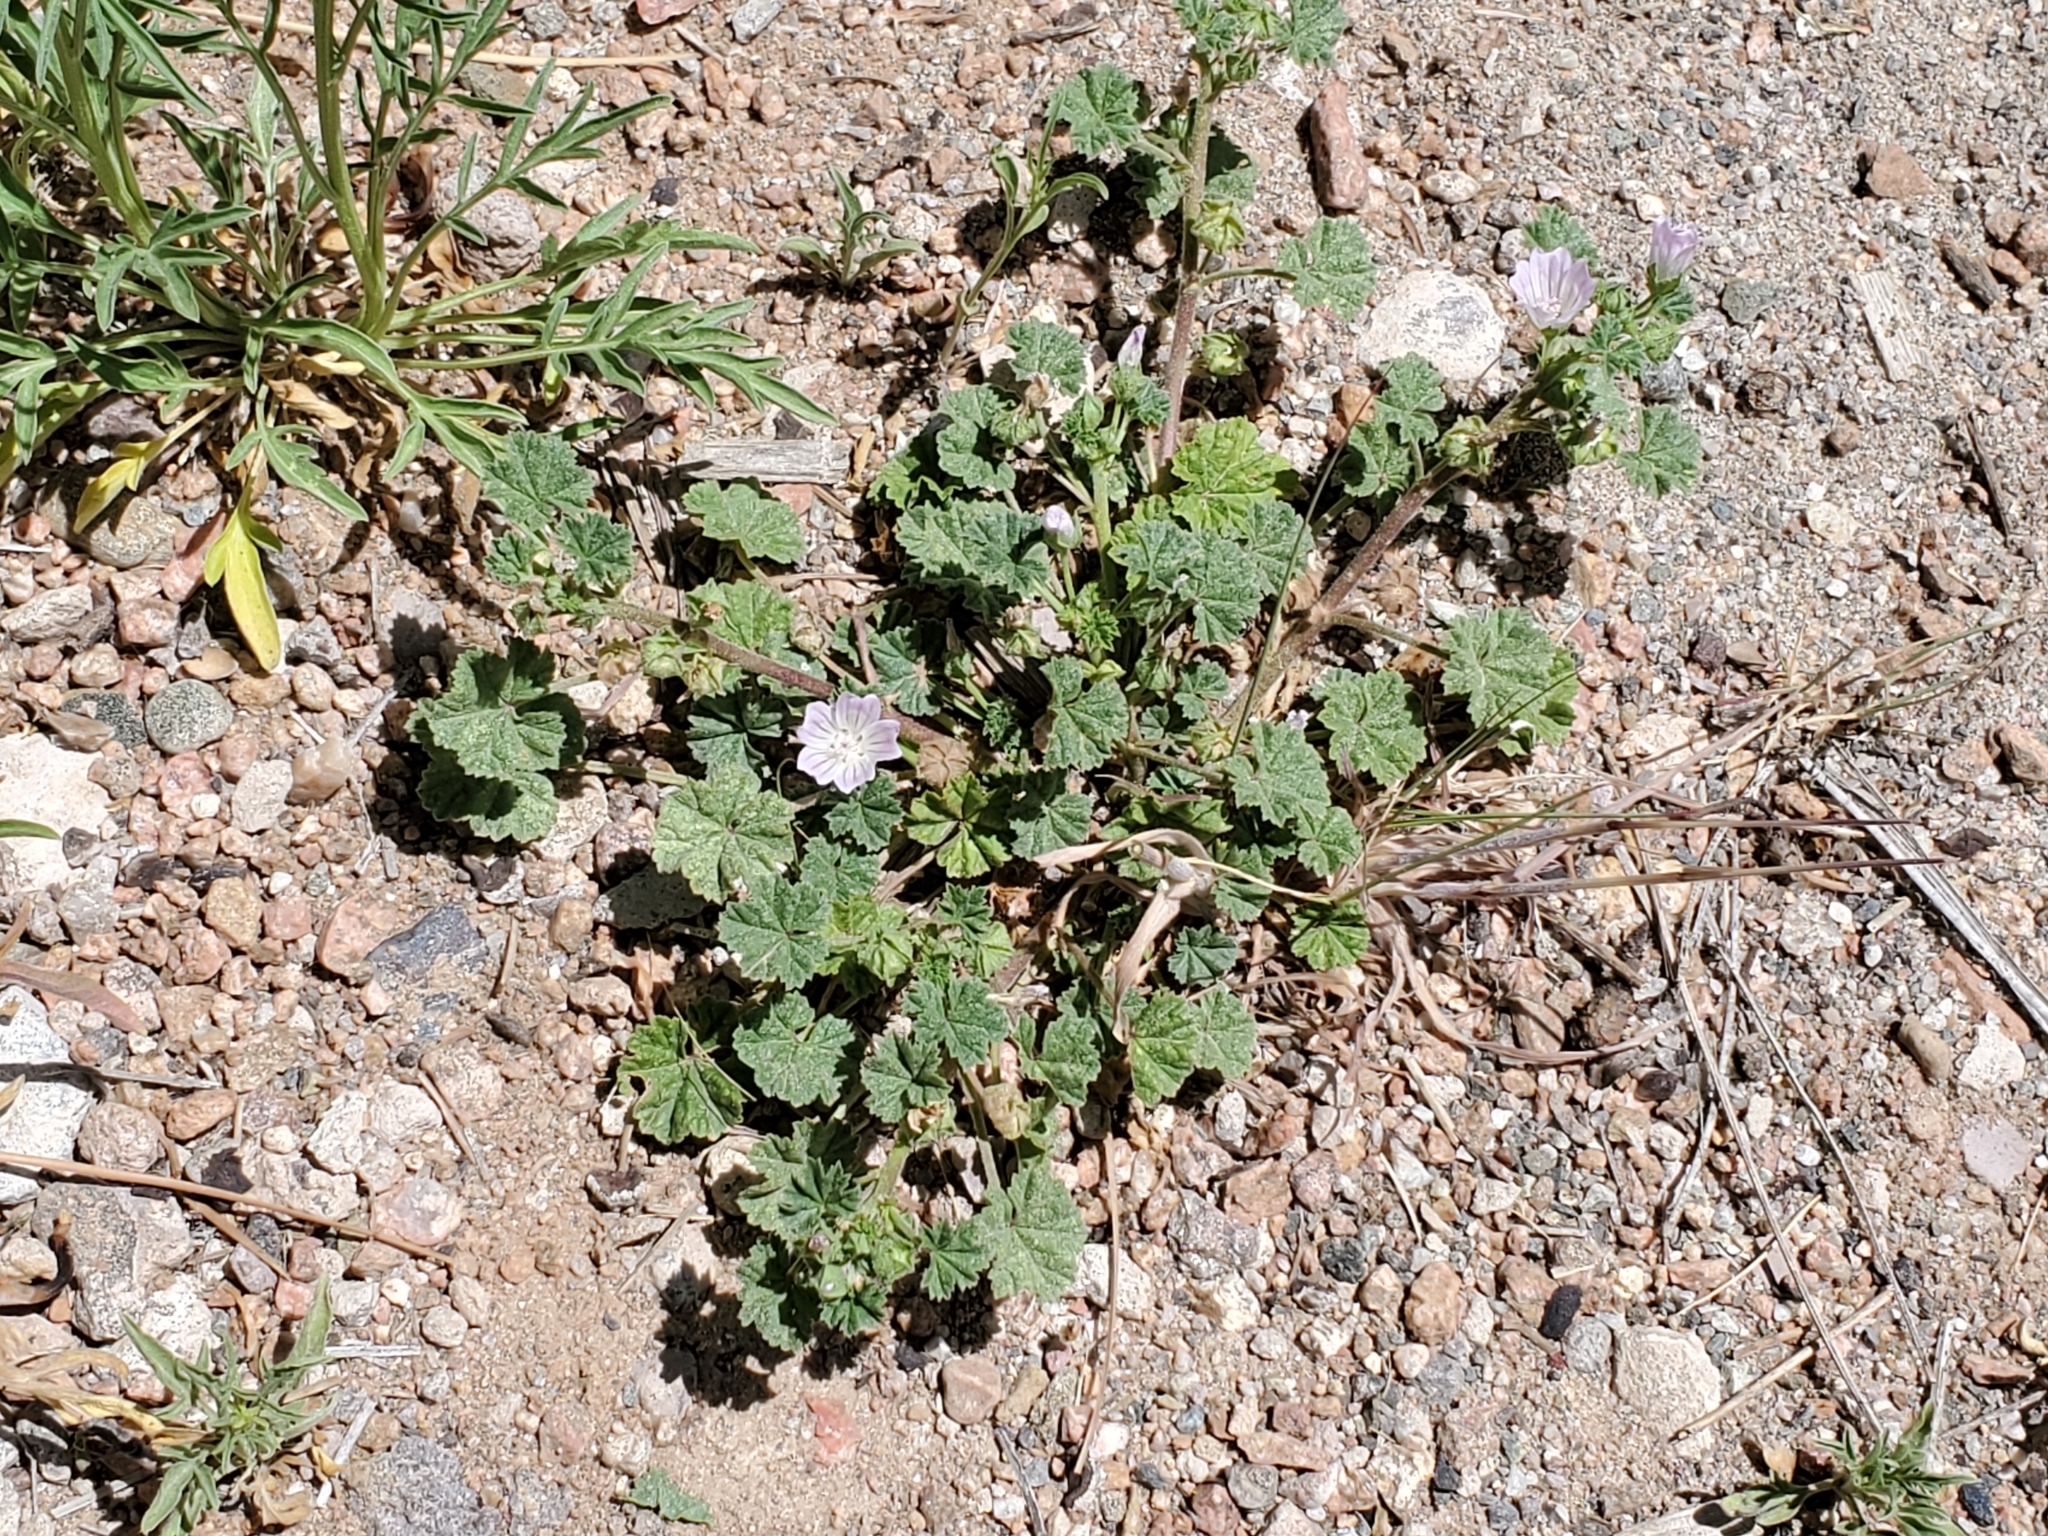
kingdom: Plantae
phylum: Tracheophyta
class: Magnoliopsida
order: Malvales
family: Malvaceae
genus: Malva
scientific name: Malva neglecta
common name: Common mallow
